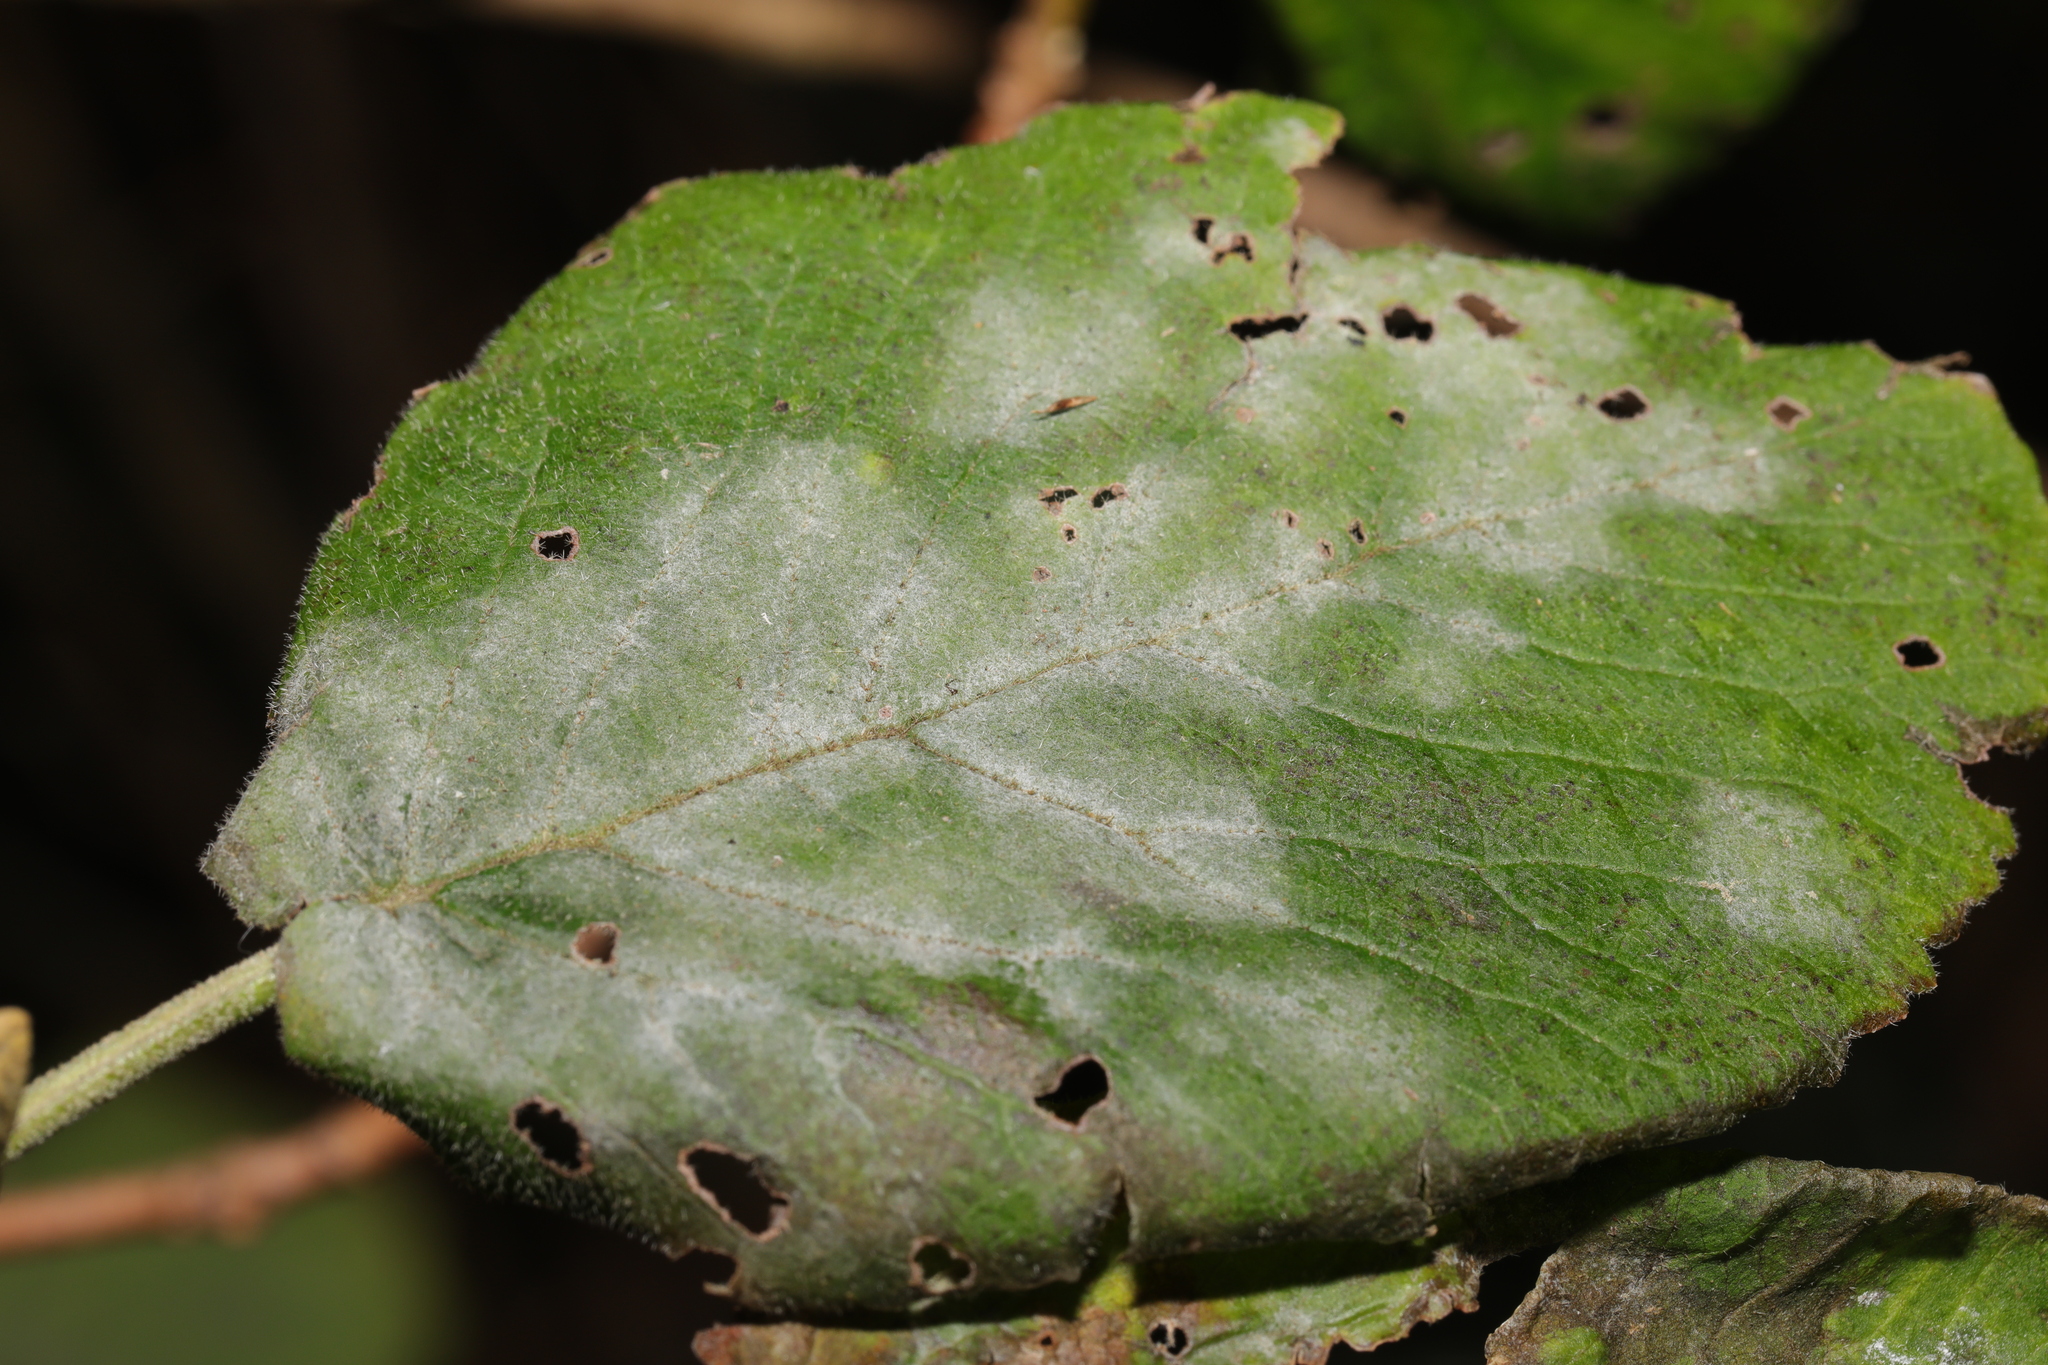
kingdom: Fungi
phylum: Ascomycota
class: Leotiomycetes
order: Helotiales
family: Erysiphaceae
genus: Podosphaera
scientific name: Podosphaera clandestina
